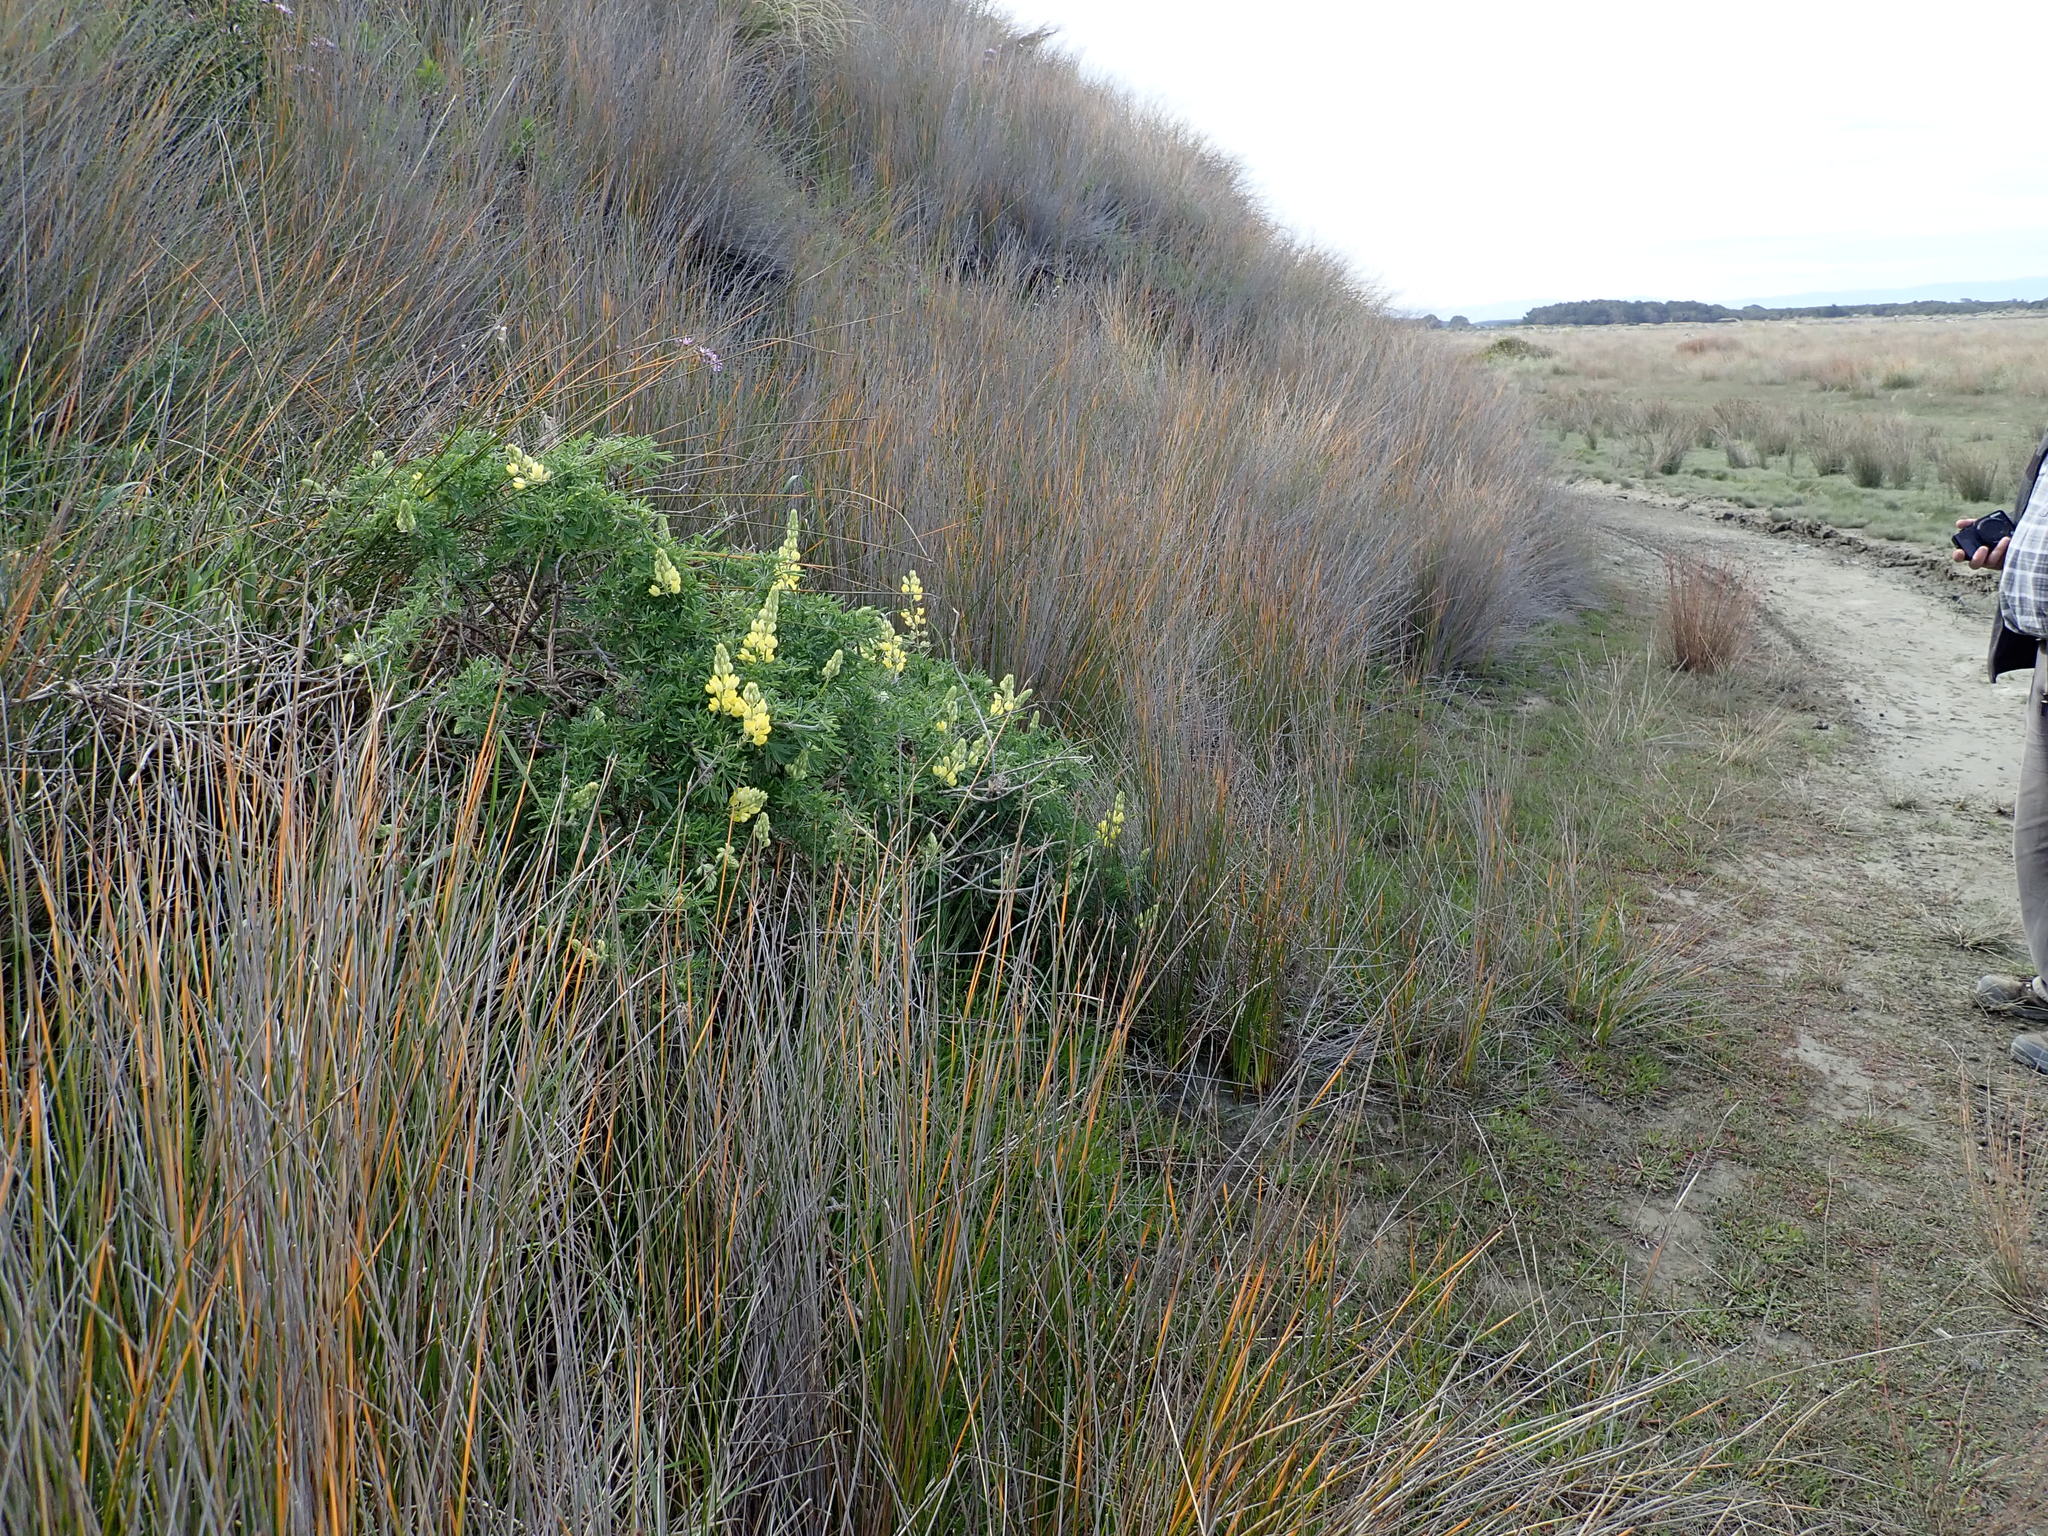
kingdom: Plantae
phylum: Tracheophyta
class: Magnoliopsida
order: Fabales
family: Fabaceae
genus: Lupinus
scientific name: Lupinus arboreus
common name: Yellow bush lupine
